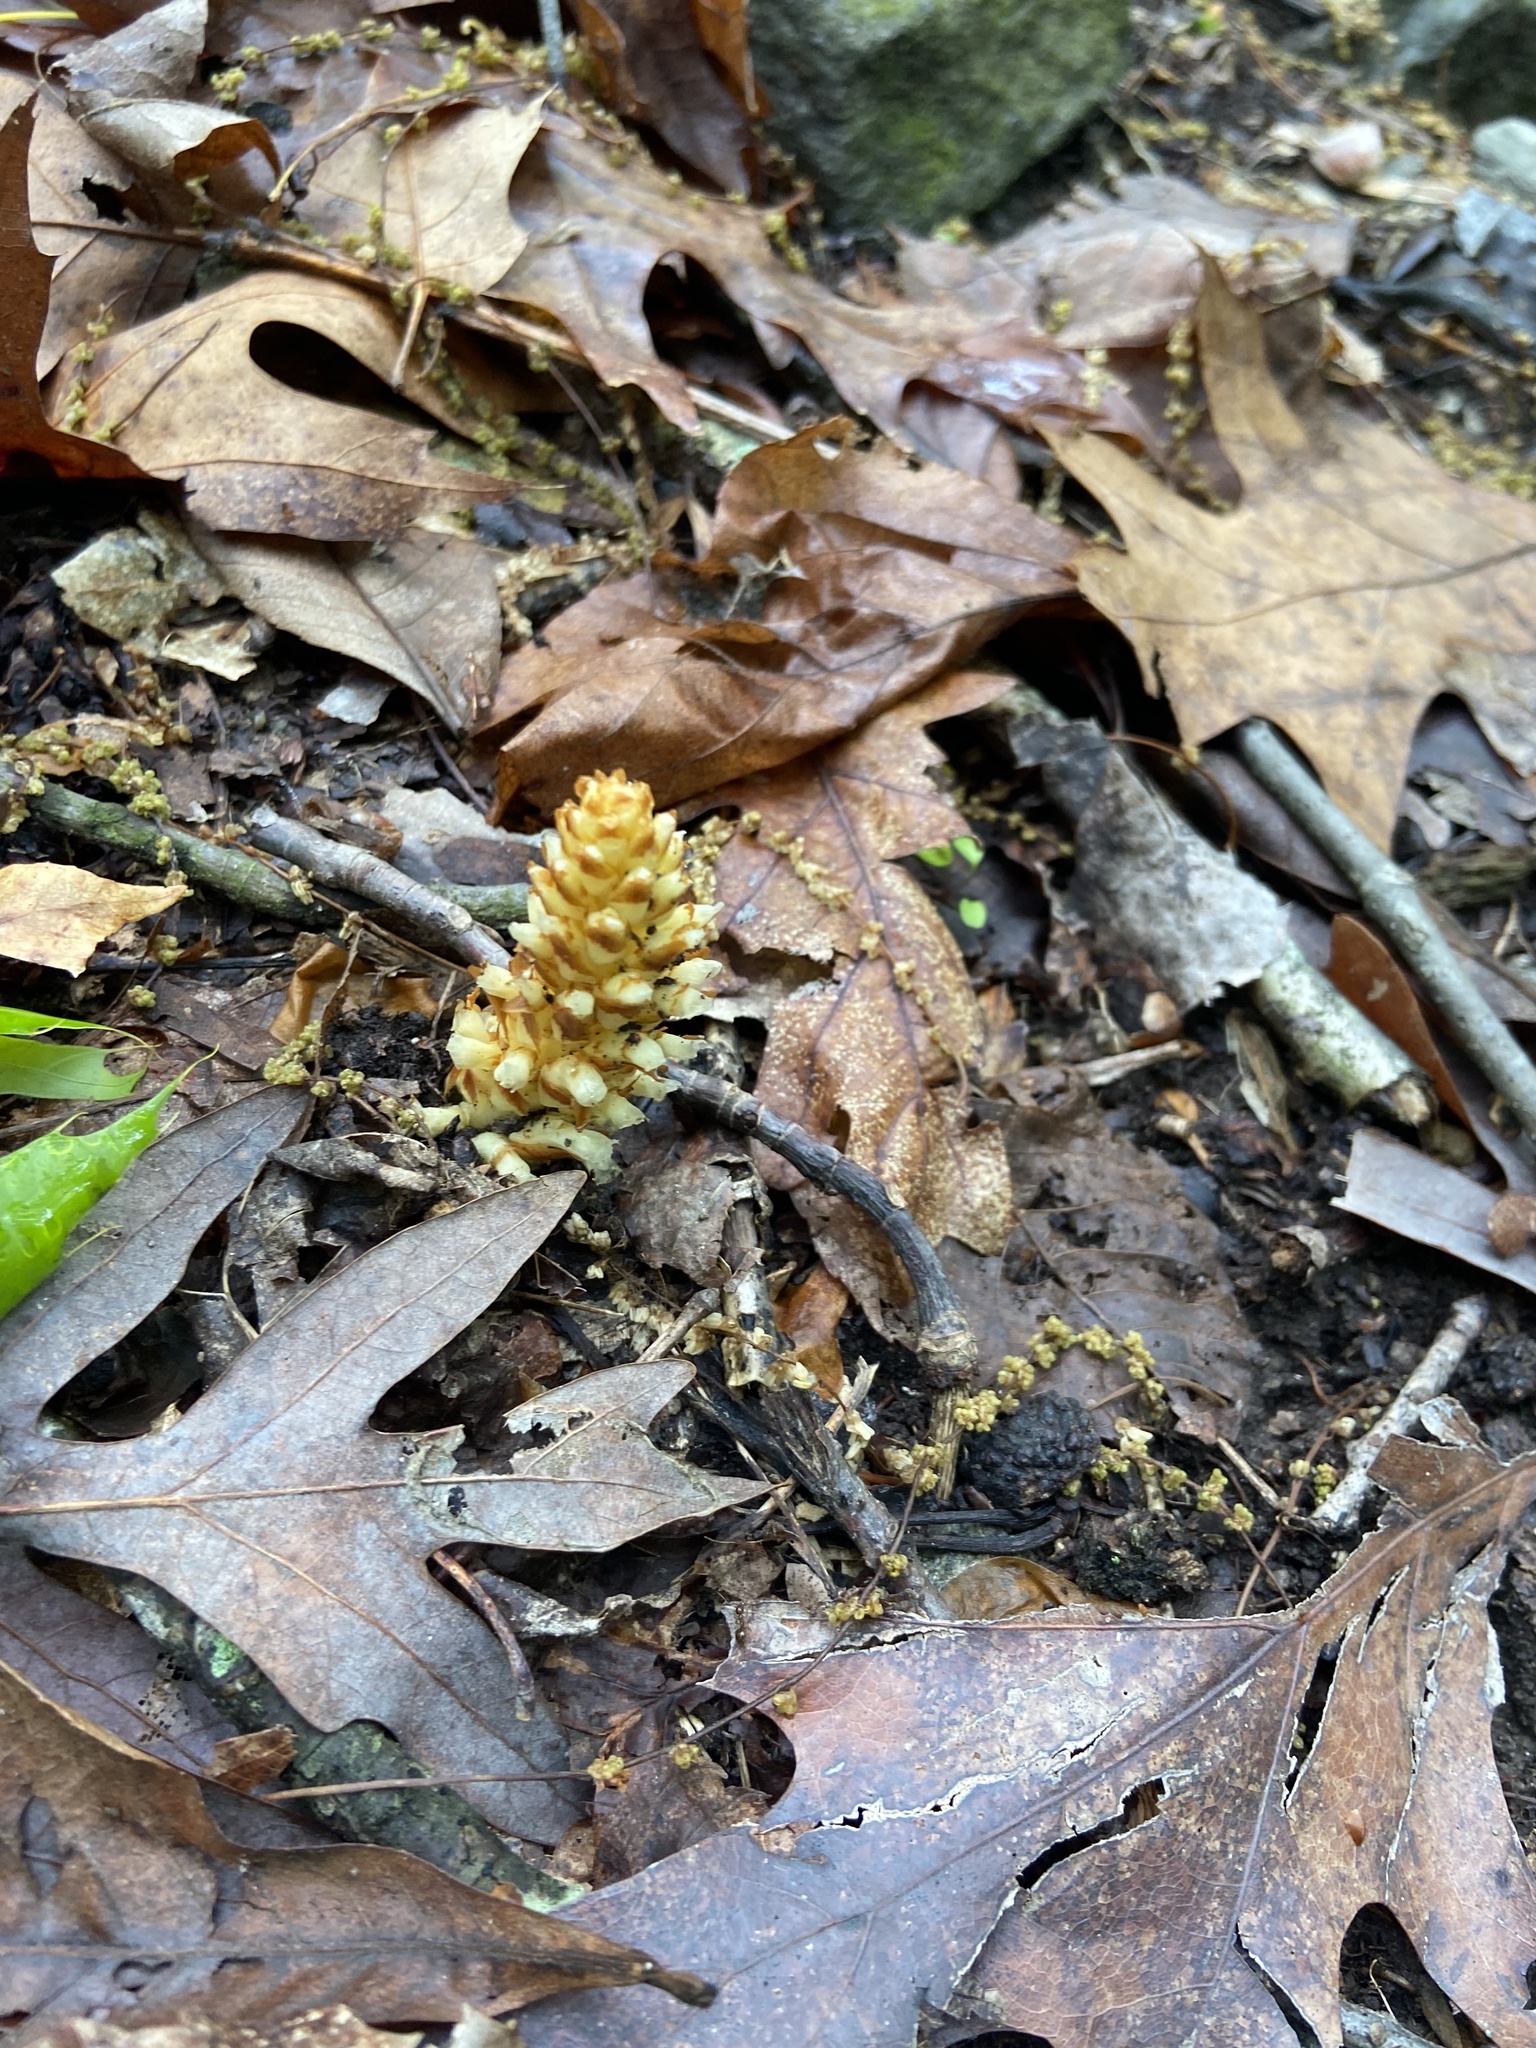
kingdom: Plantae
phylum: Tracheophyta
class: Magnoliopsida
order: Lamiales
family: Orobanchaceae
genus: Conopholis
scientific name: Conopholis americana
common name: American cancer-root
